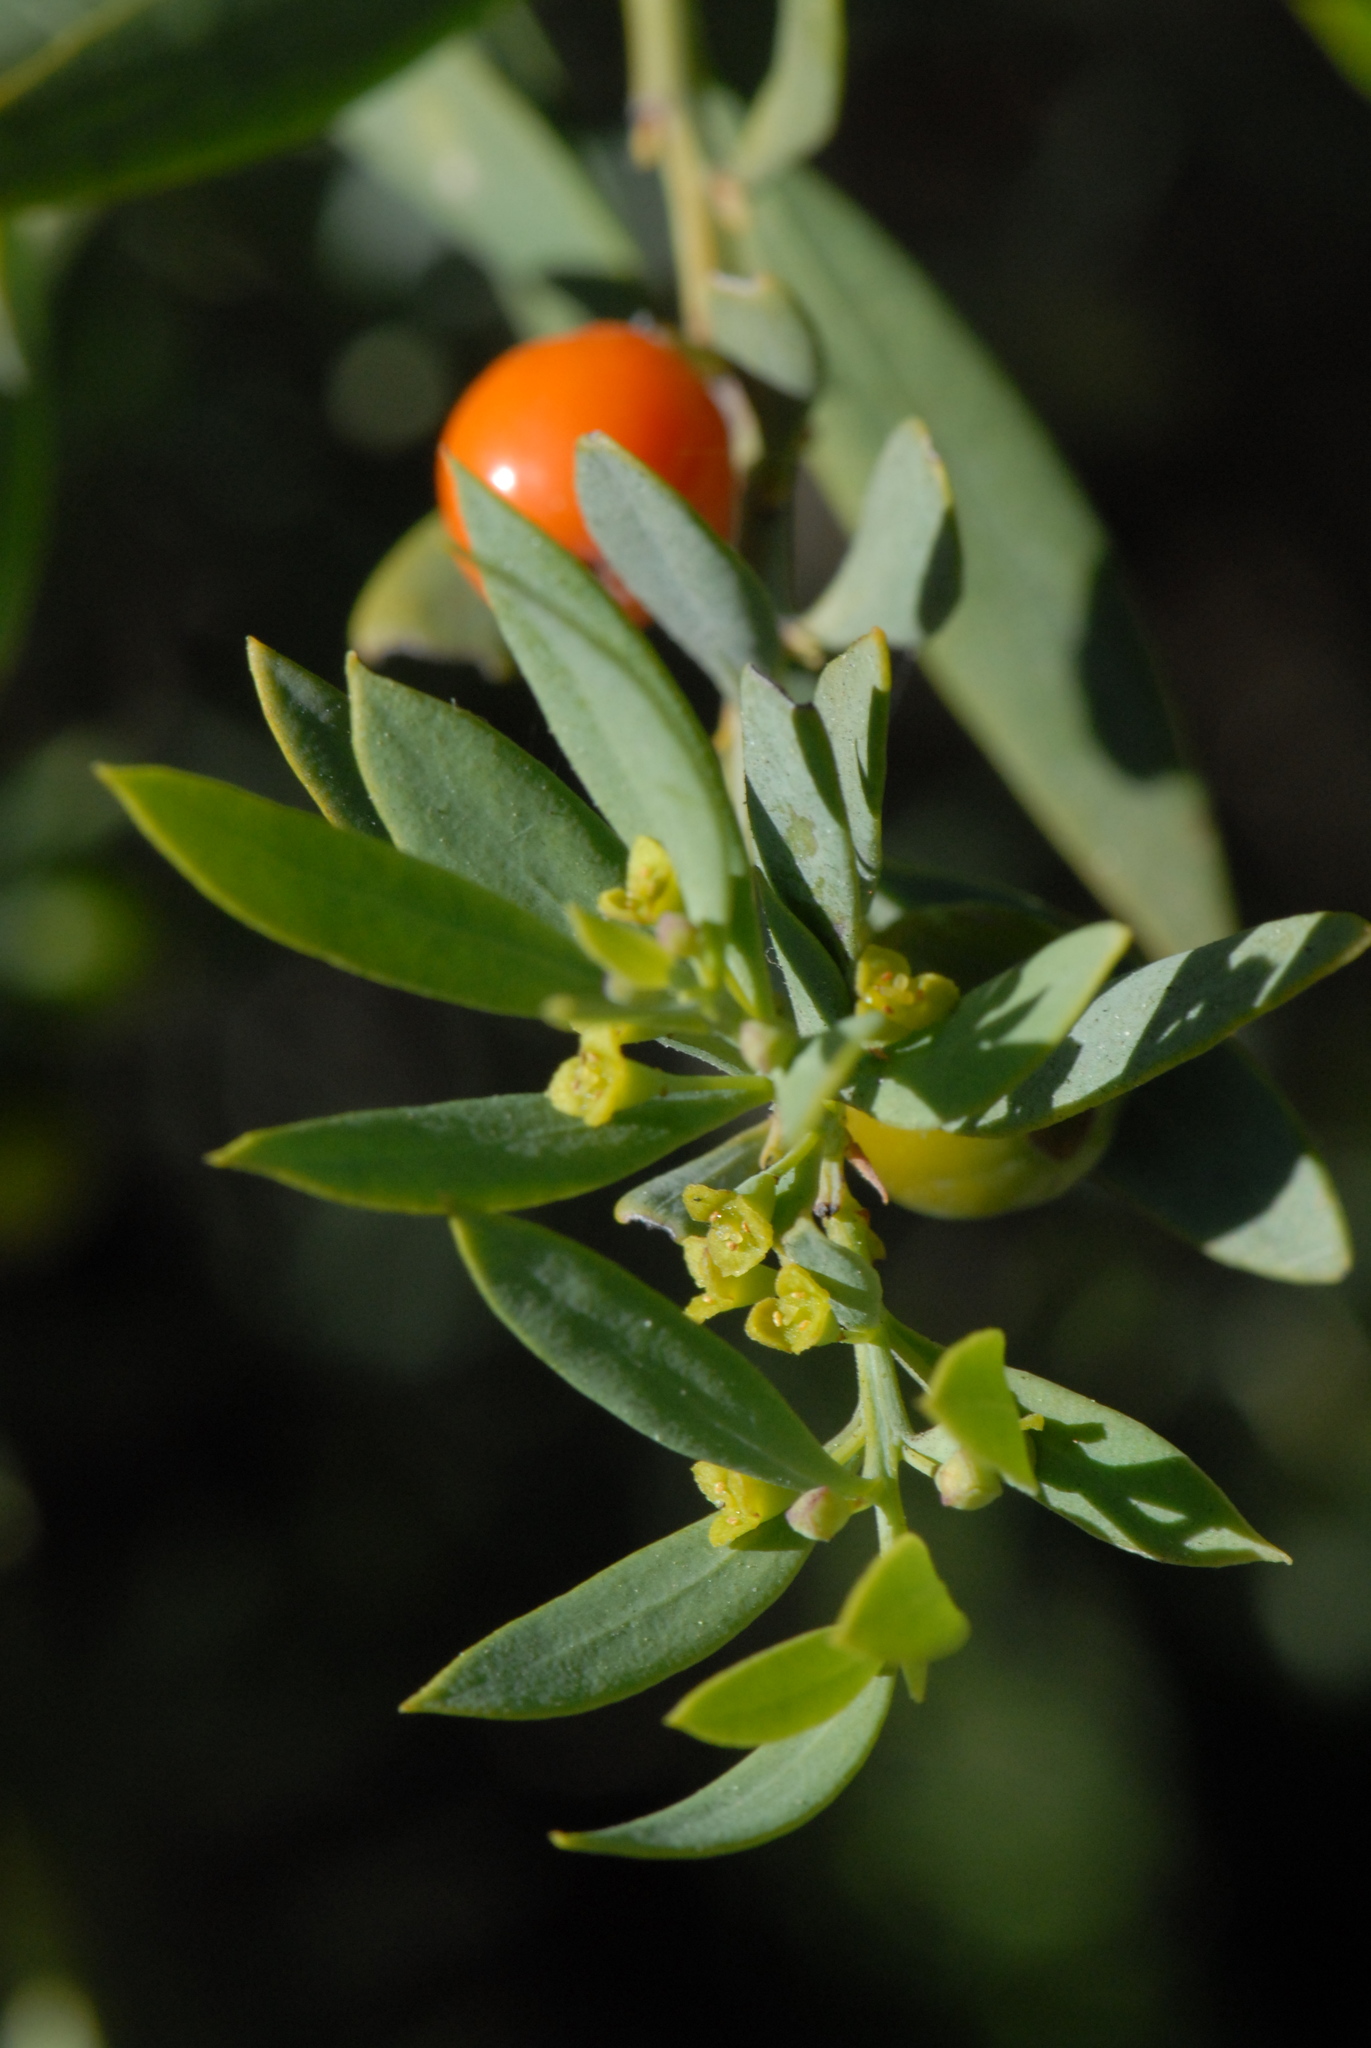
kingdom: Plantae
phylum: Tracheophyta
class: Magnoliopsida
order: Santalales
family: Santalaceae
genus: Osyris
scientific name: Osyris lanceolata
